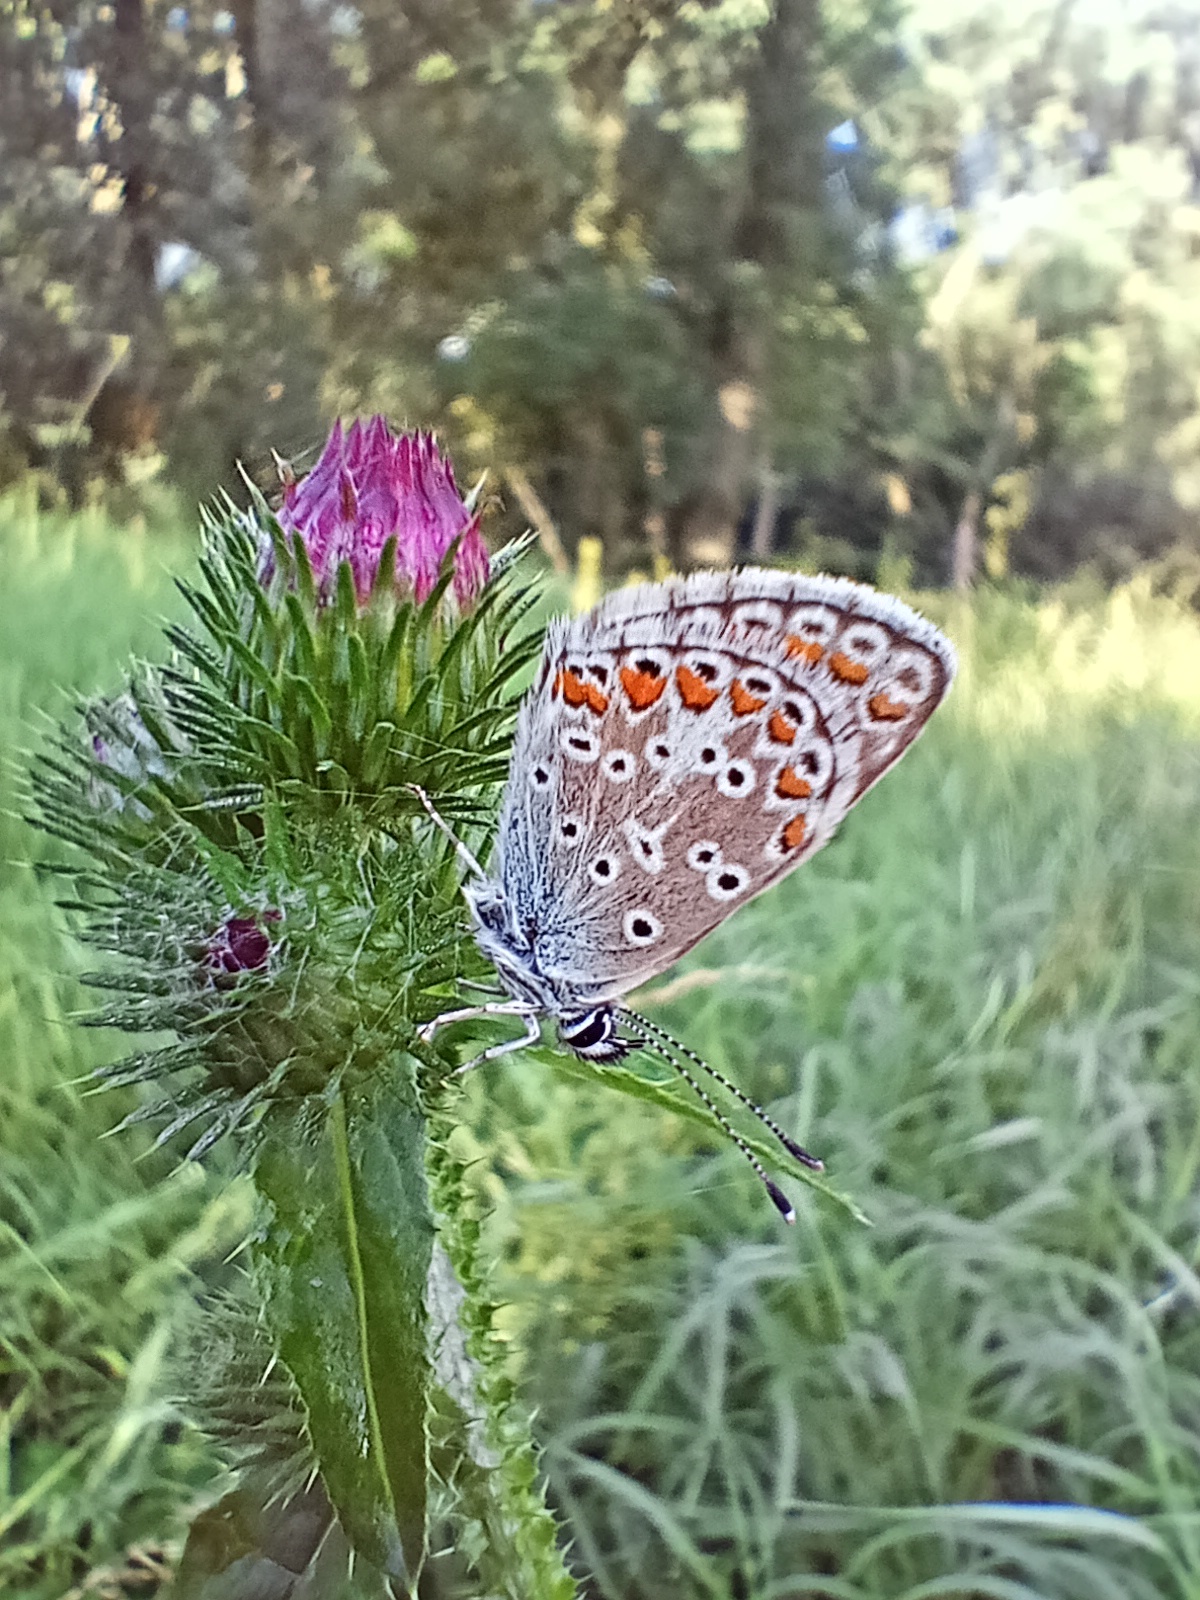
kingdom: Animalia
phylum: Arthropoda
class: Insecta
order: Lepidoptera
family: Lycaenidae
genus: Aricia
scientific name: Aricia agestis
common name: Brown argus
